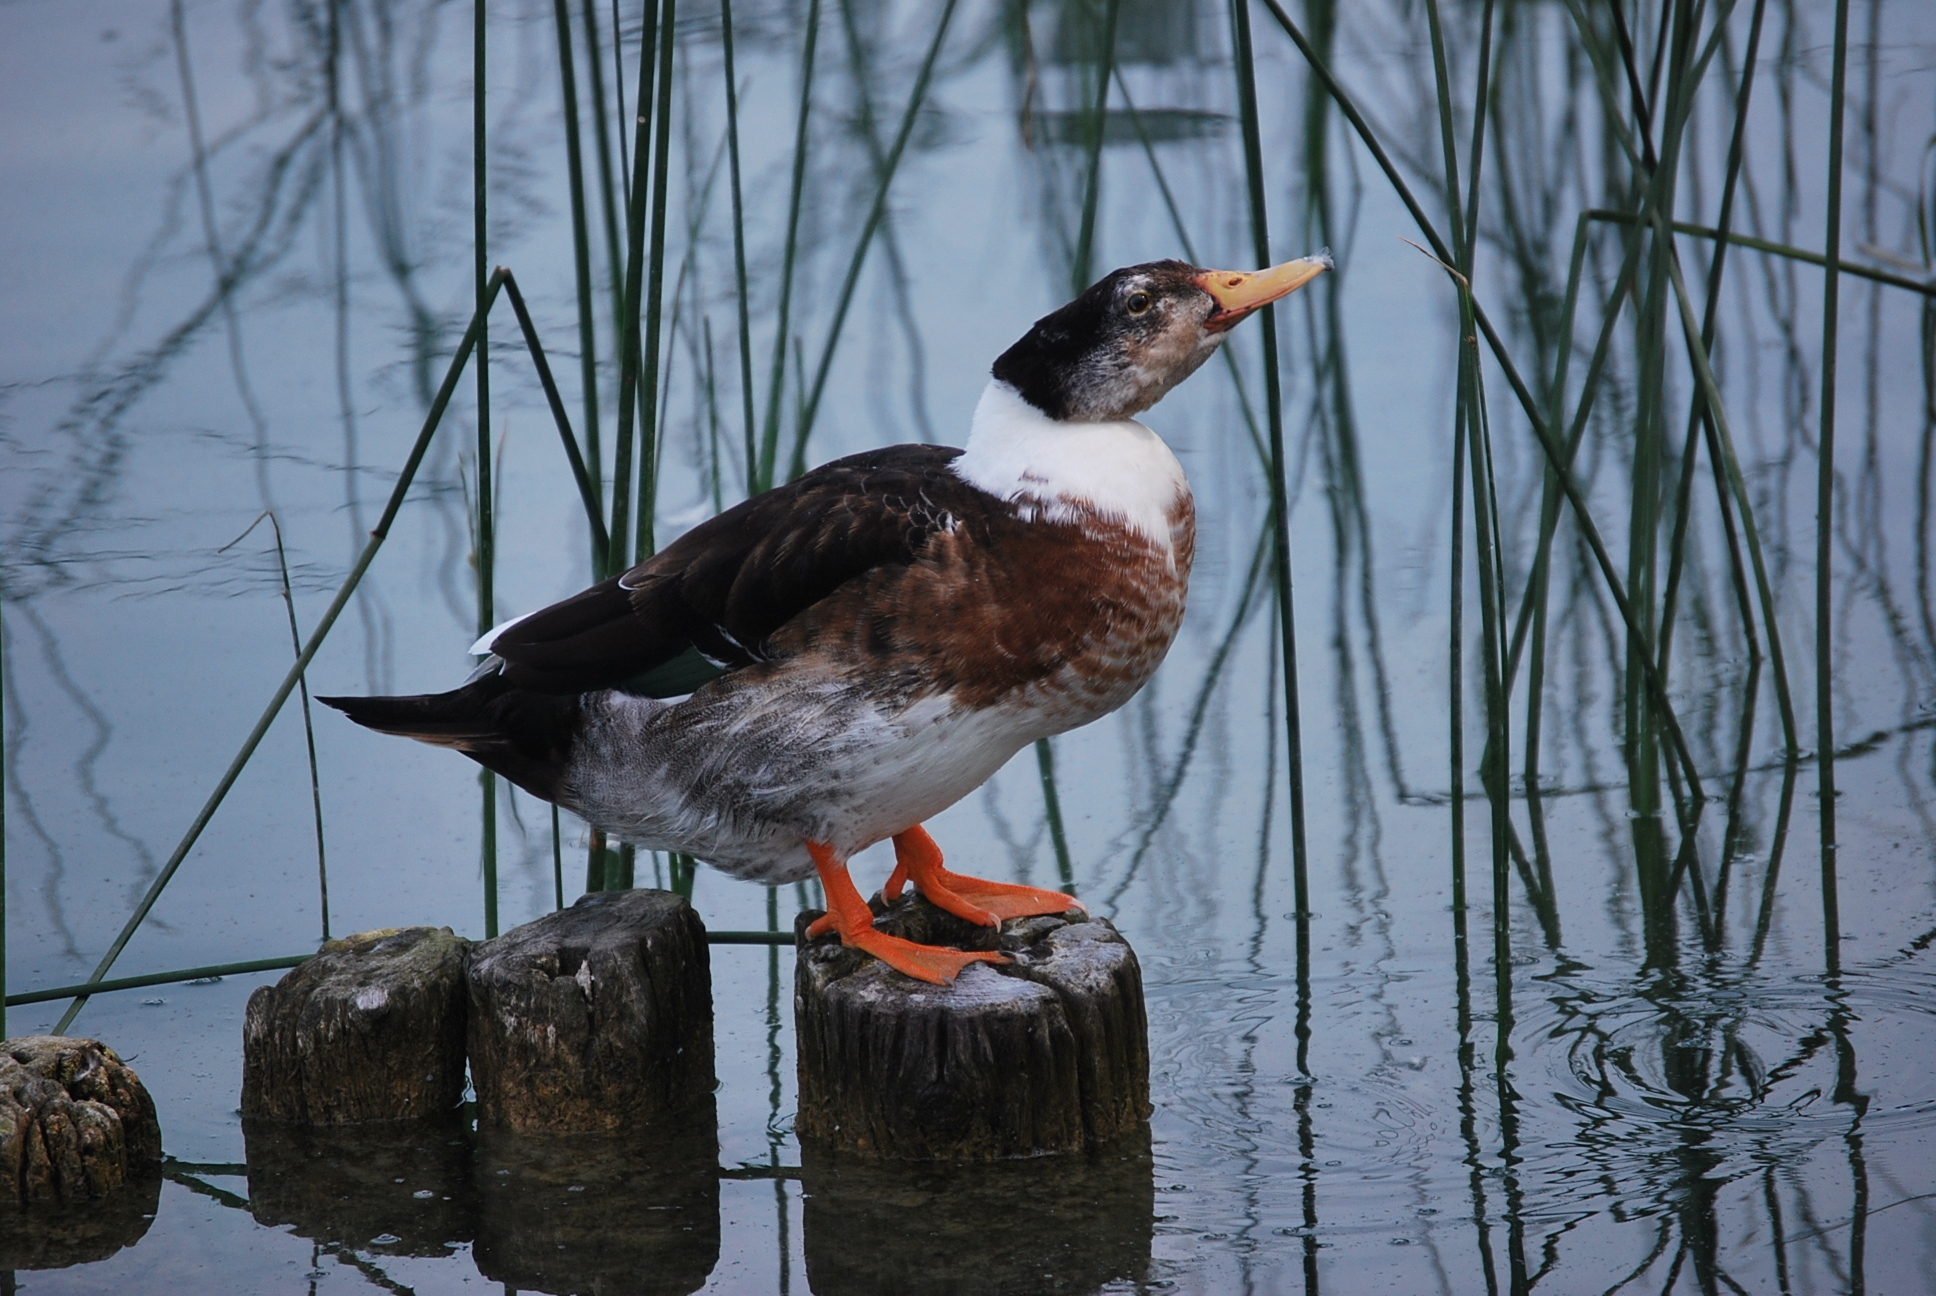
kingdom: Animalia
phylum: Chordata
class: Aves
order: Anseriformes
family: Anatidae
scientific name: Anatidae
